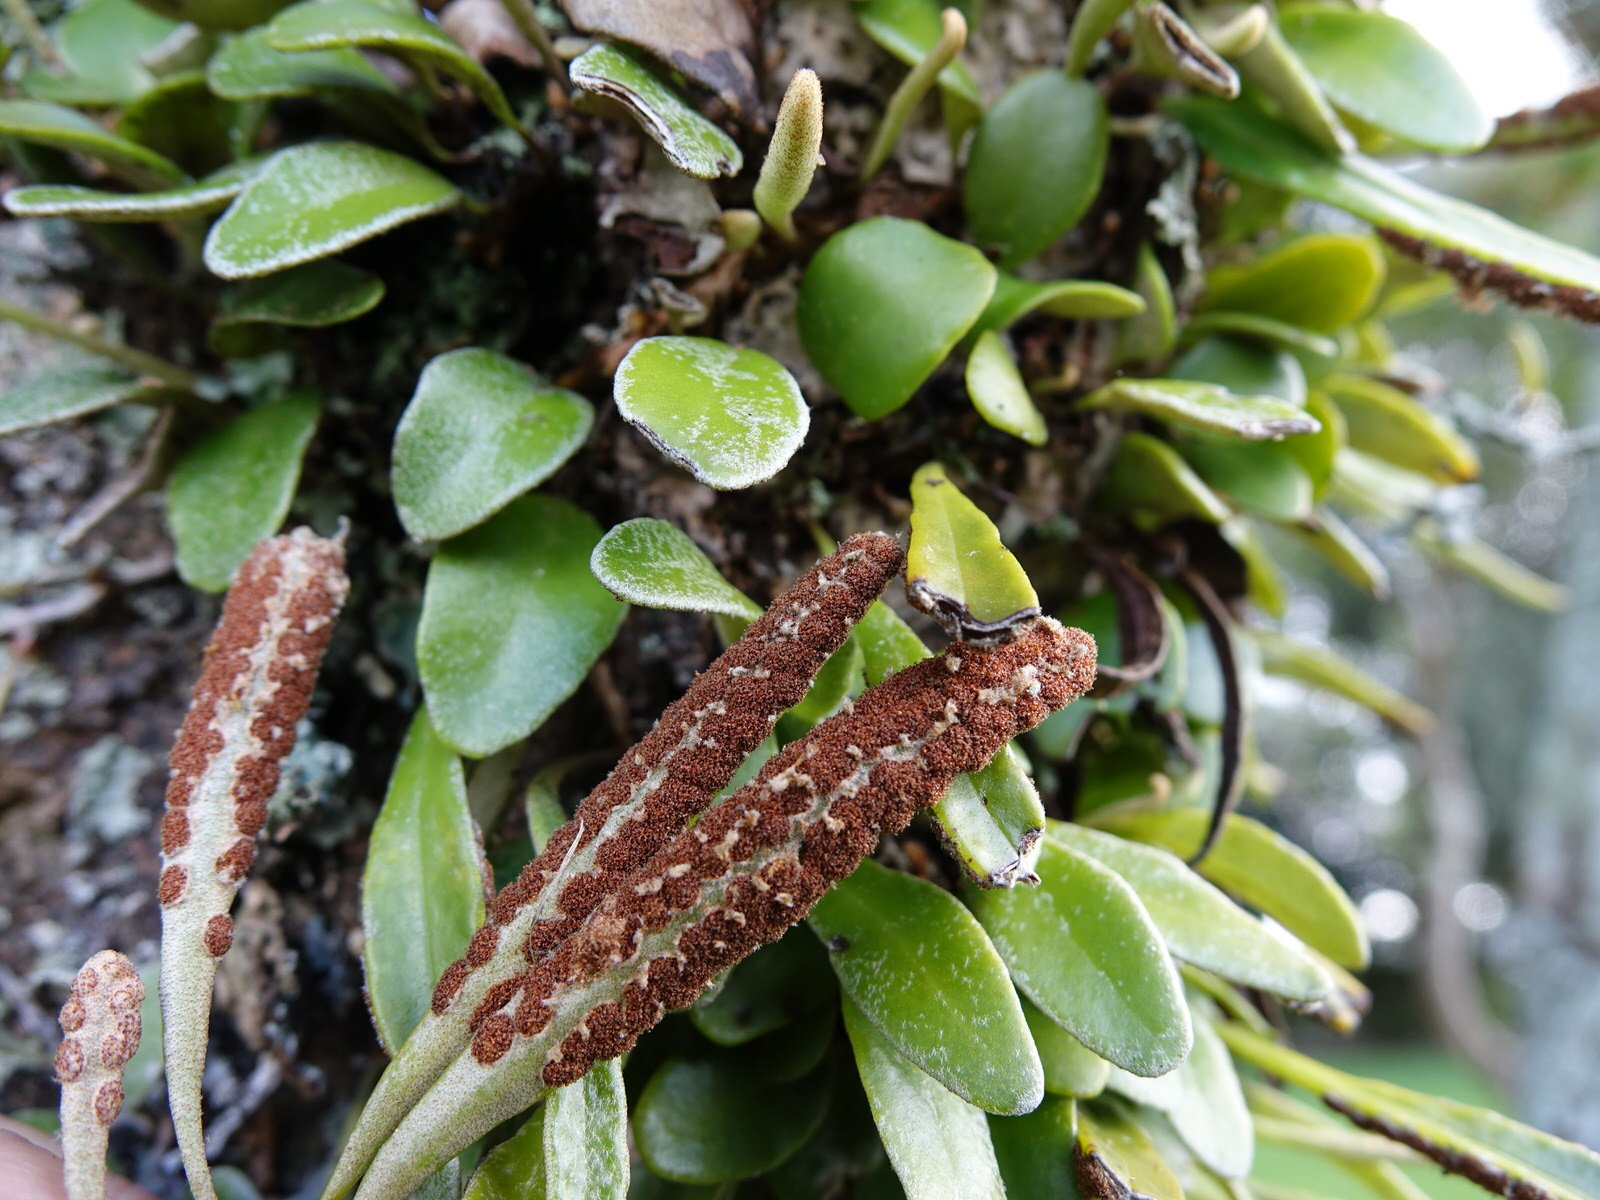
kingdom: Plantae
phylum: Tracheophyta
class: Polypodiopsida
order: Polypodiales
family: Polypodiaceae
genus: Pyrrosia
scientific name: Pyrrosia eleagnifolia
